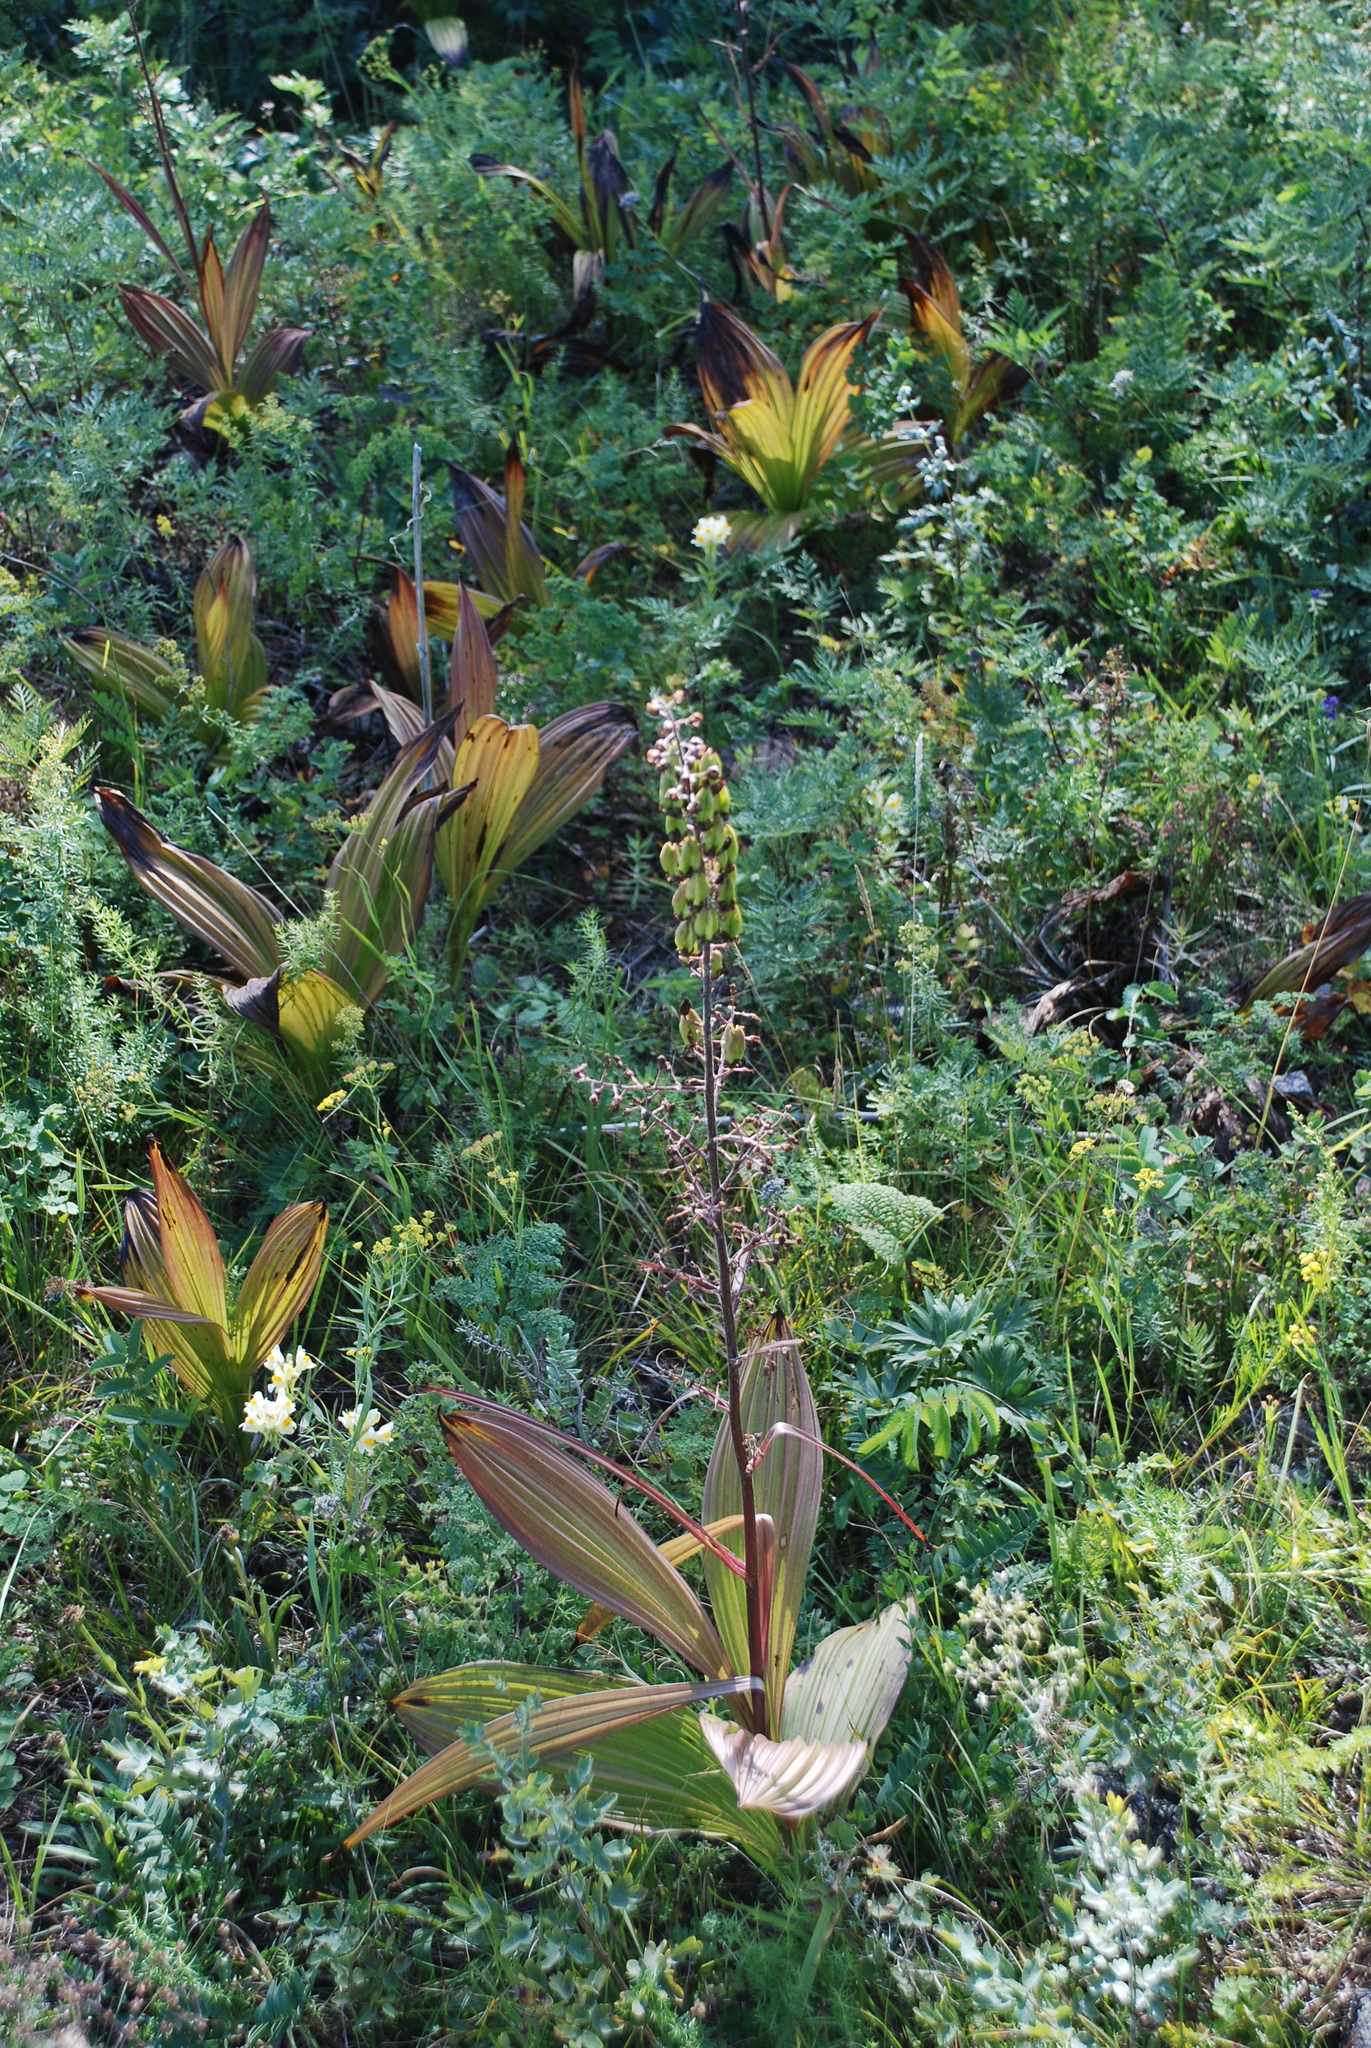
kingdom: Plantae
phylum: Tracheophyta
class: Liliopsida
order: Liliales
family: Melanthiaceae
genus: Veratrum
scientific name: Veratrum nigrum
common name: Black veratrum
